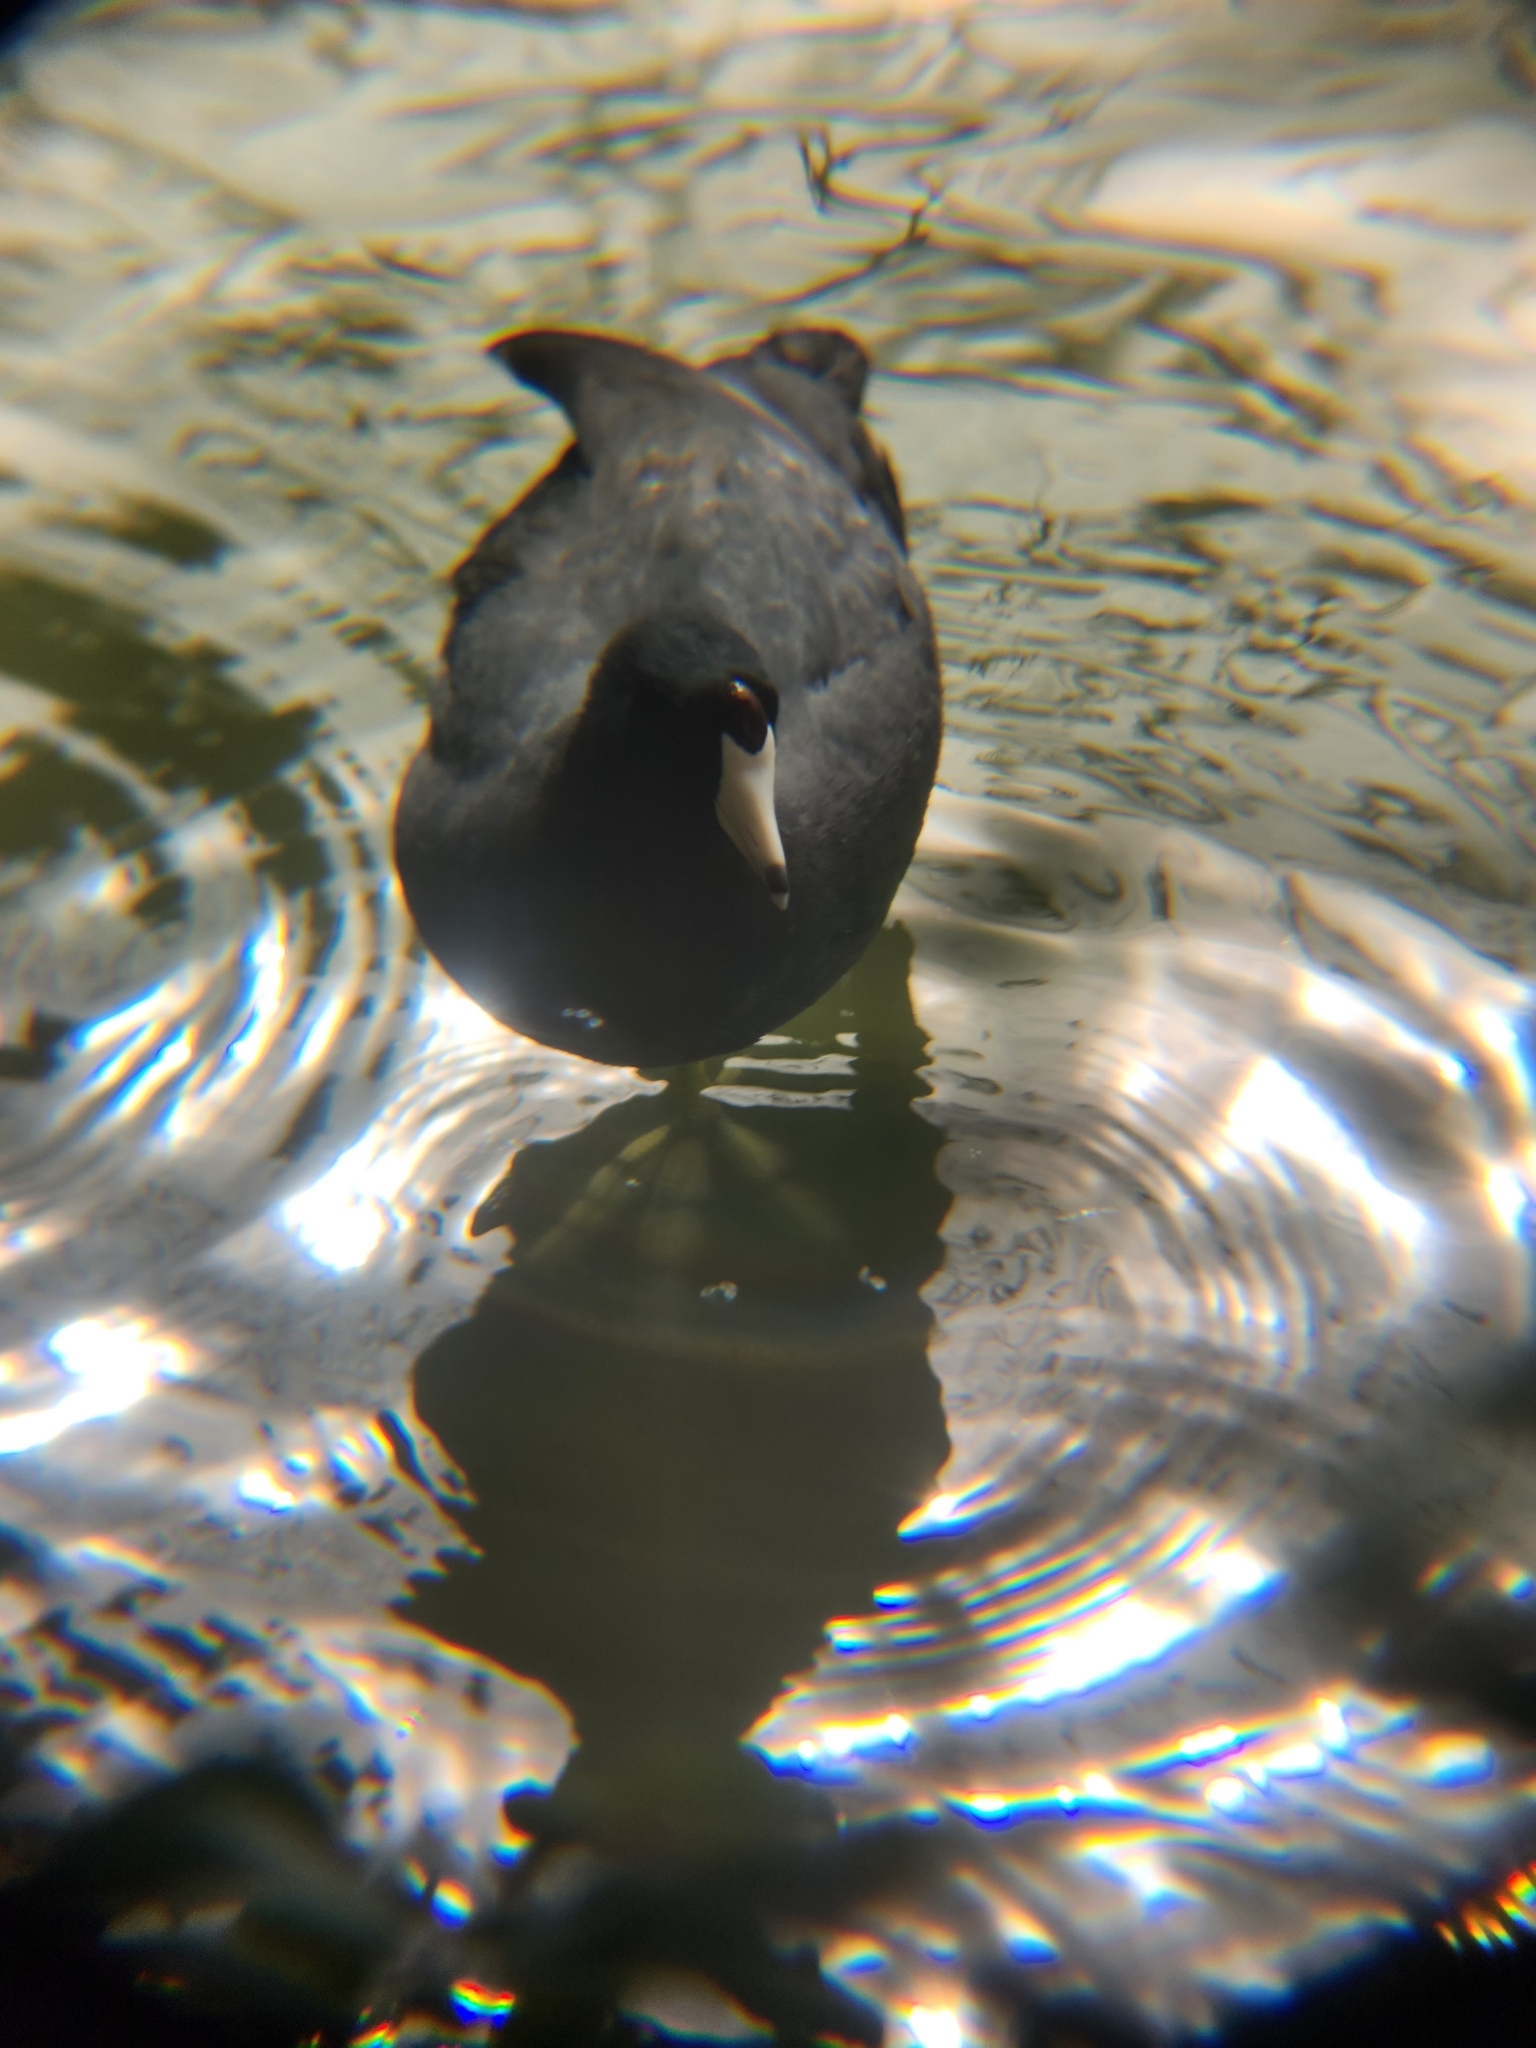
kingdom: Animalia
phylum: Chordata
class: Aves
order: Gruiformes
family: Rallidae
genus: Fulica
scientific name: Fulica americana
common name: American coot
